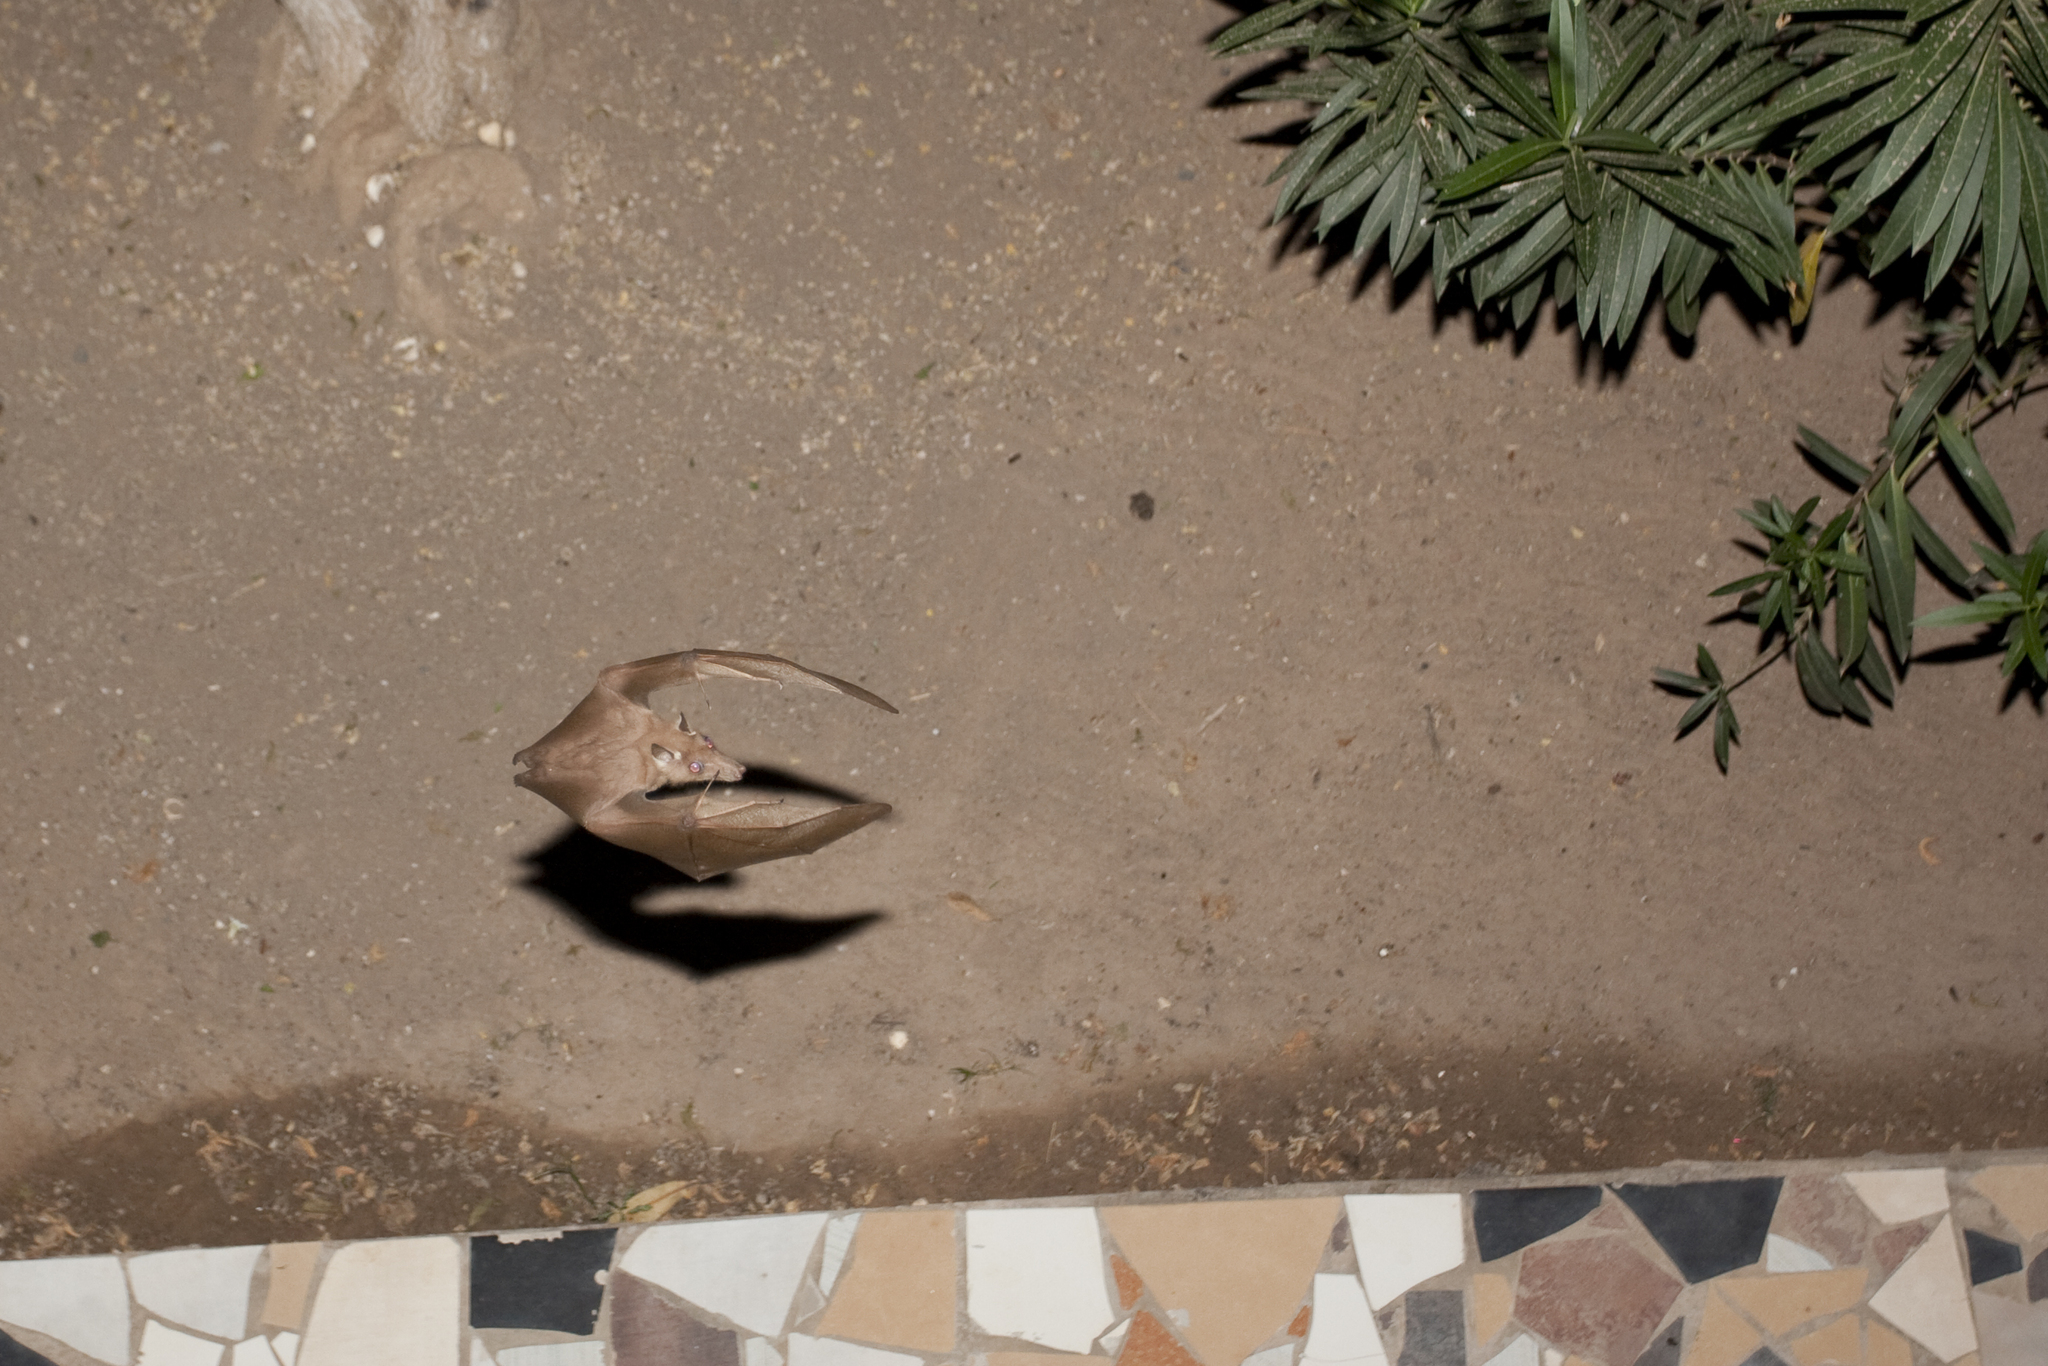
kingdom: Animalia
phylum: Chordata
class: Mammalia
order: Chiroptera
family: Pteropodidae
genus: Epomophorus
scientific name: Epomophorus gambianus
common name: Gambian epauletted fruit bat
